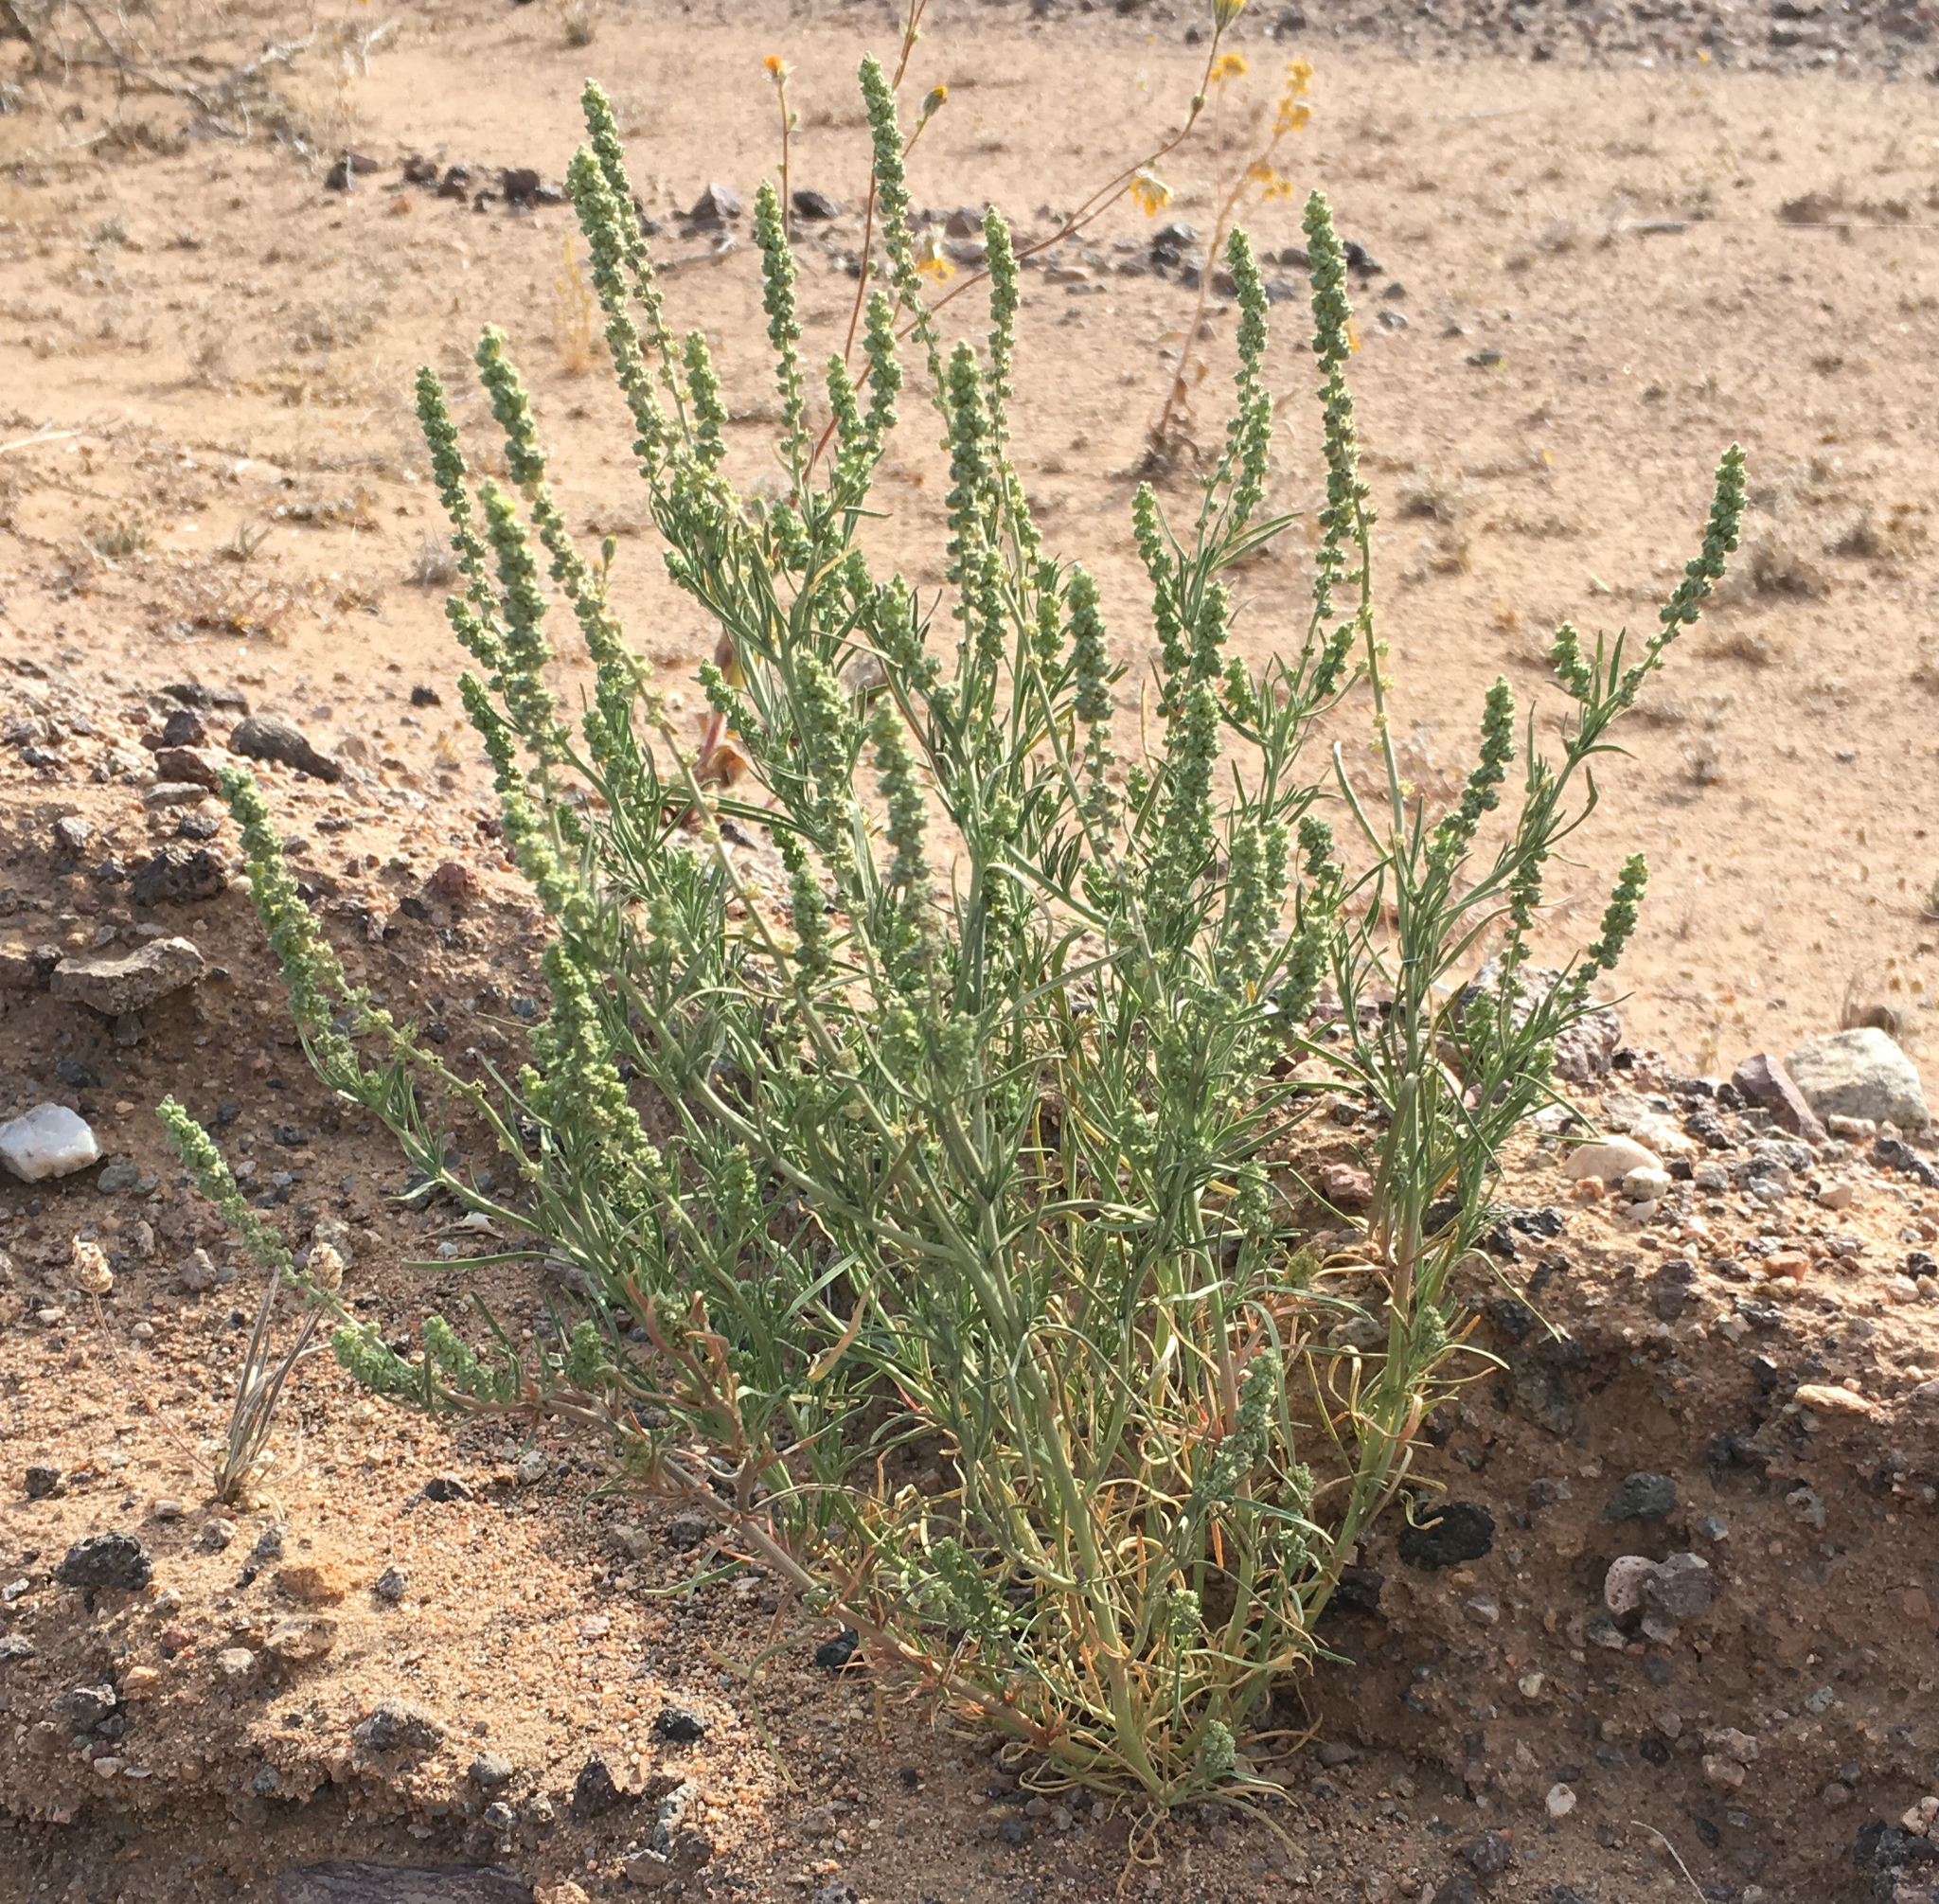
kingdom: Plantae
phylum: Tracheophyta
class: Magnoliopsida
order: Brassicales
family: Resedaceae
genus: Oligomeris
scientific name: Oligomeris linifolia
